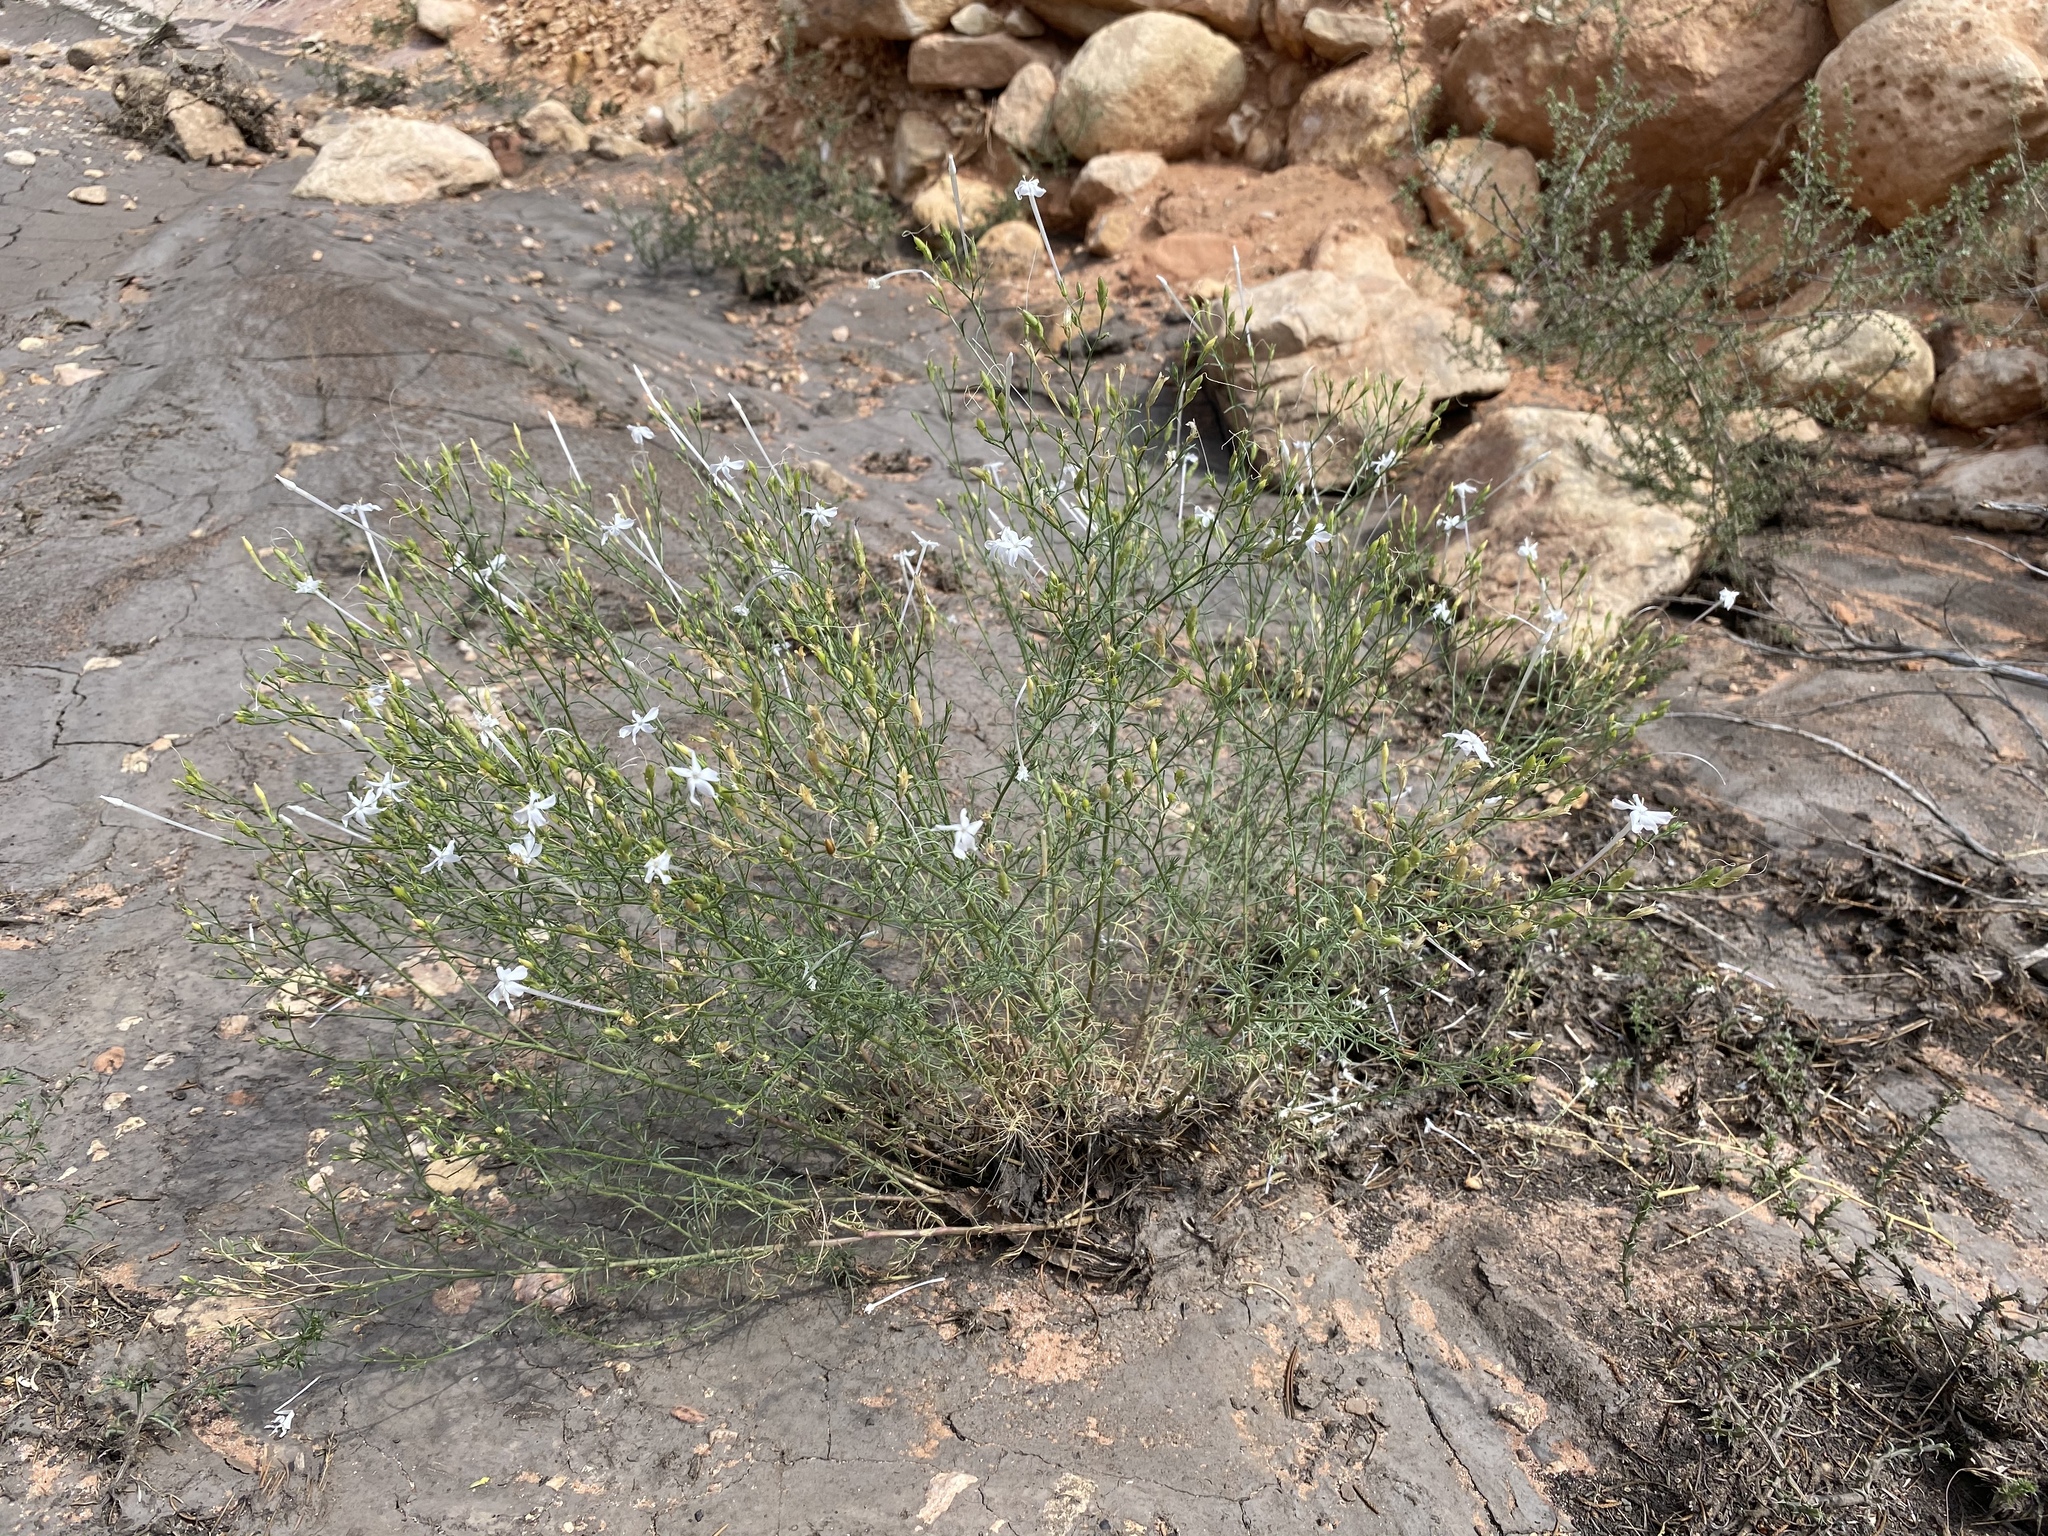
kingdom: Plantae
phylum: Tracheophyta
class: Magnoliopsida
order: Ericales
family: Polemoniaceae
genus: Ipomopsis
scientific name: Ipomopsis longiflora
